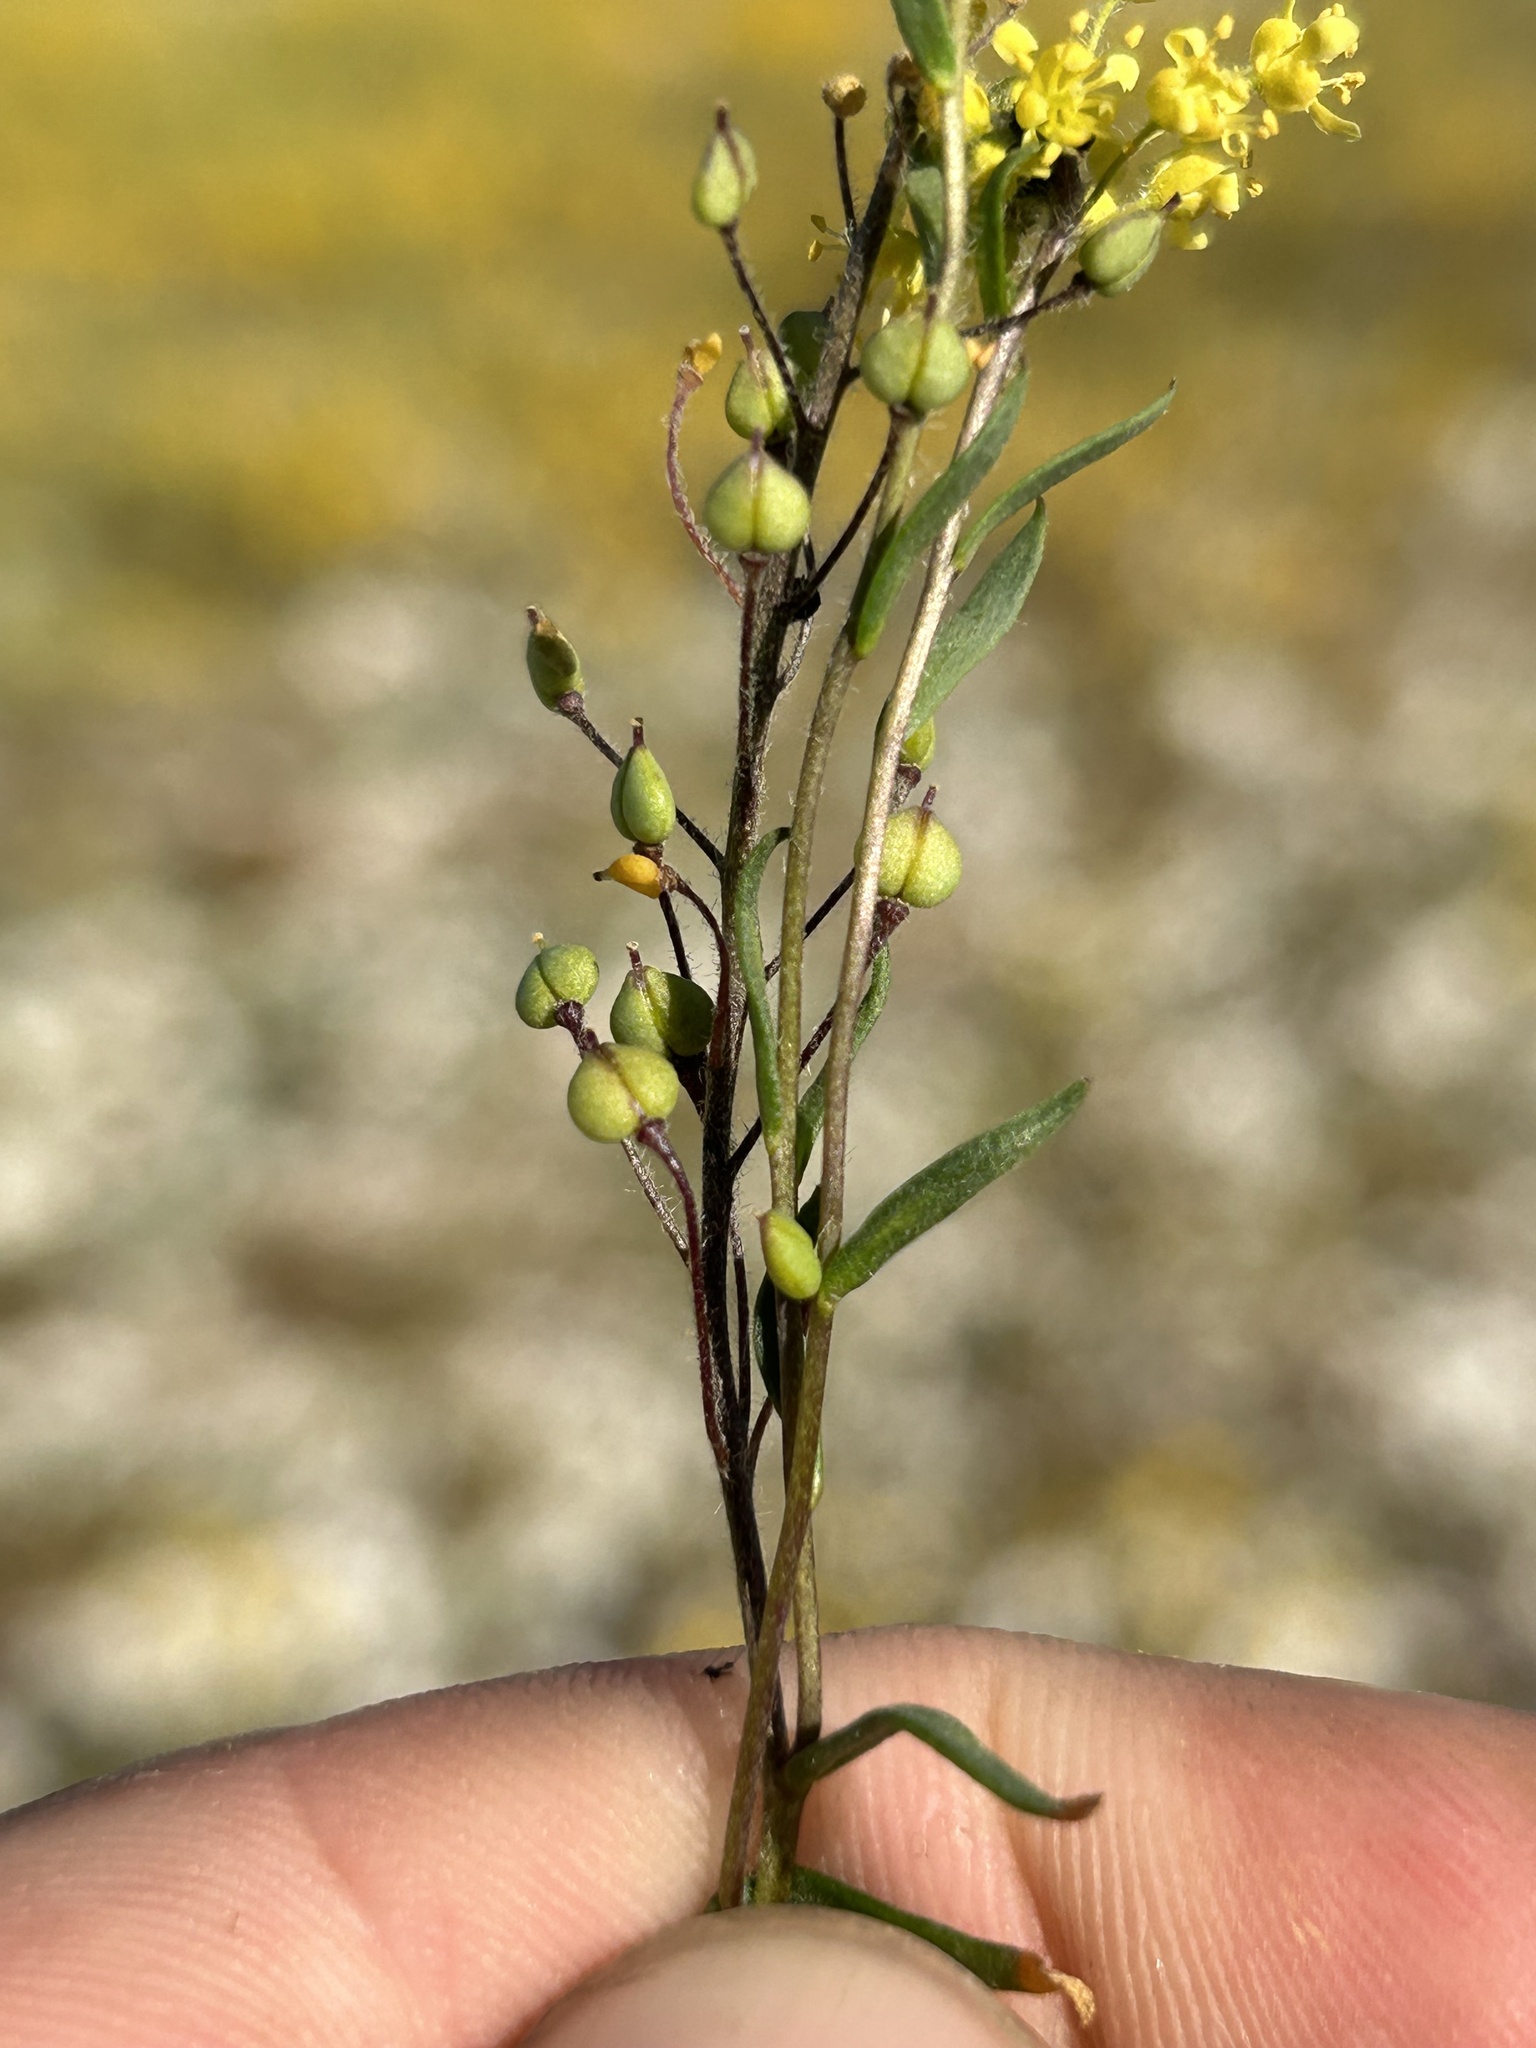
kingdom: Plantae
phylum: Tracheophyta
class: Magnoliopsida
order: Brassicales
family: Brassicaceae
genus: Lepidium
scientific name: Lepidium jaredii
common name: Jared's peppergrass
